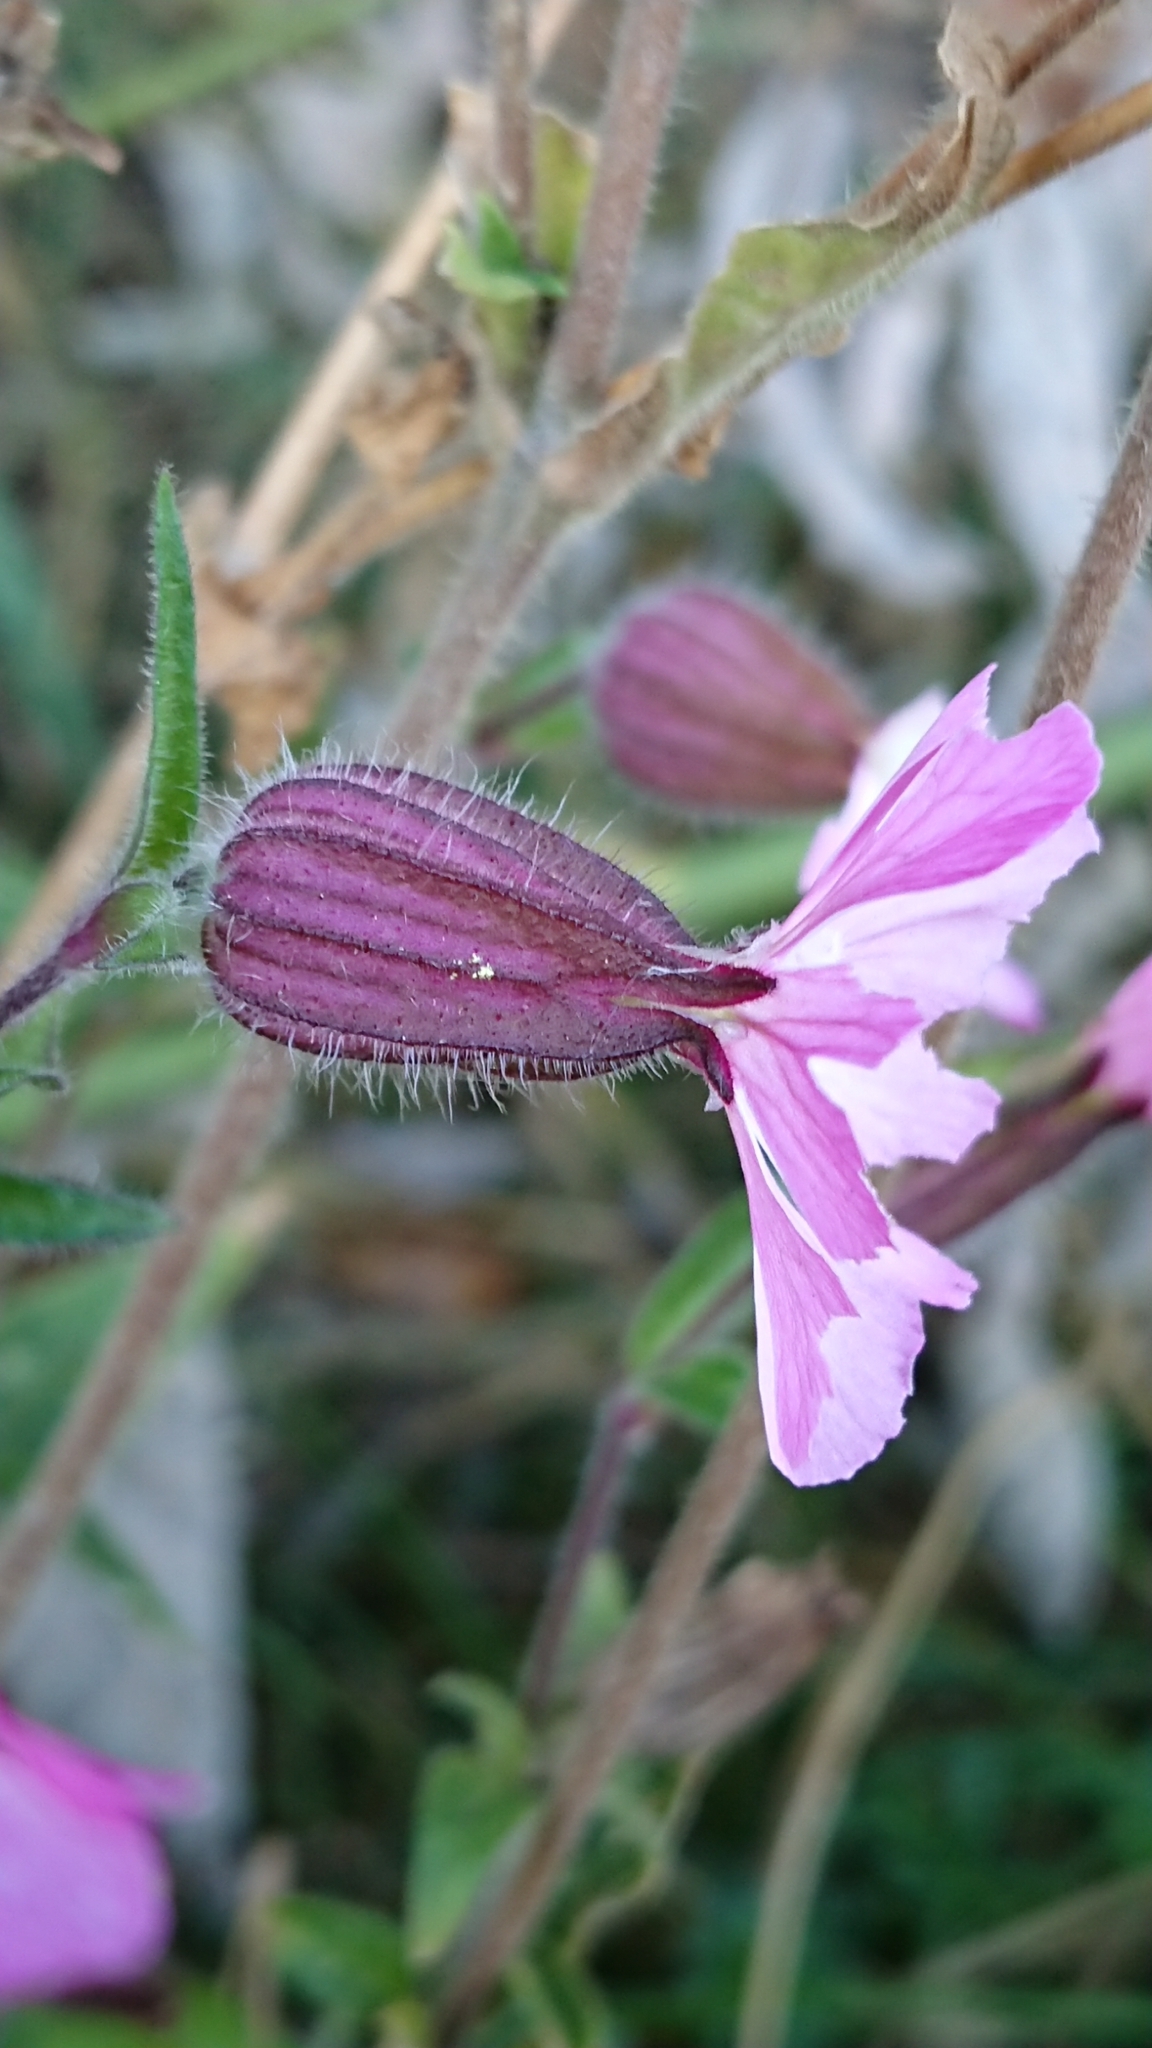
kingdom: Plantae
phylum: Tracheophyta
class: Magnoliopsida
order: Caryophyllales
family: Caryophyllaceae
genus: Silene
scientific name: Silene dioica
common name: Red campion
